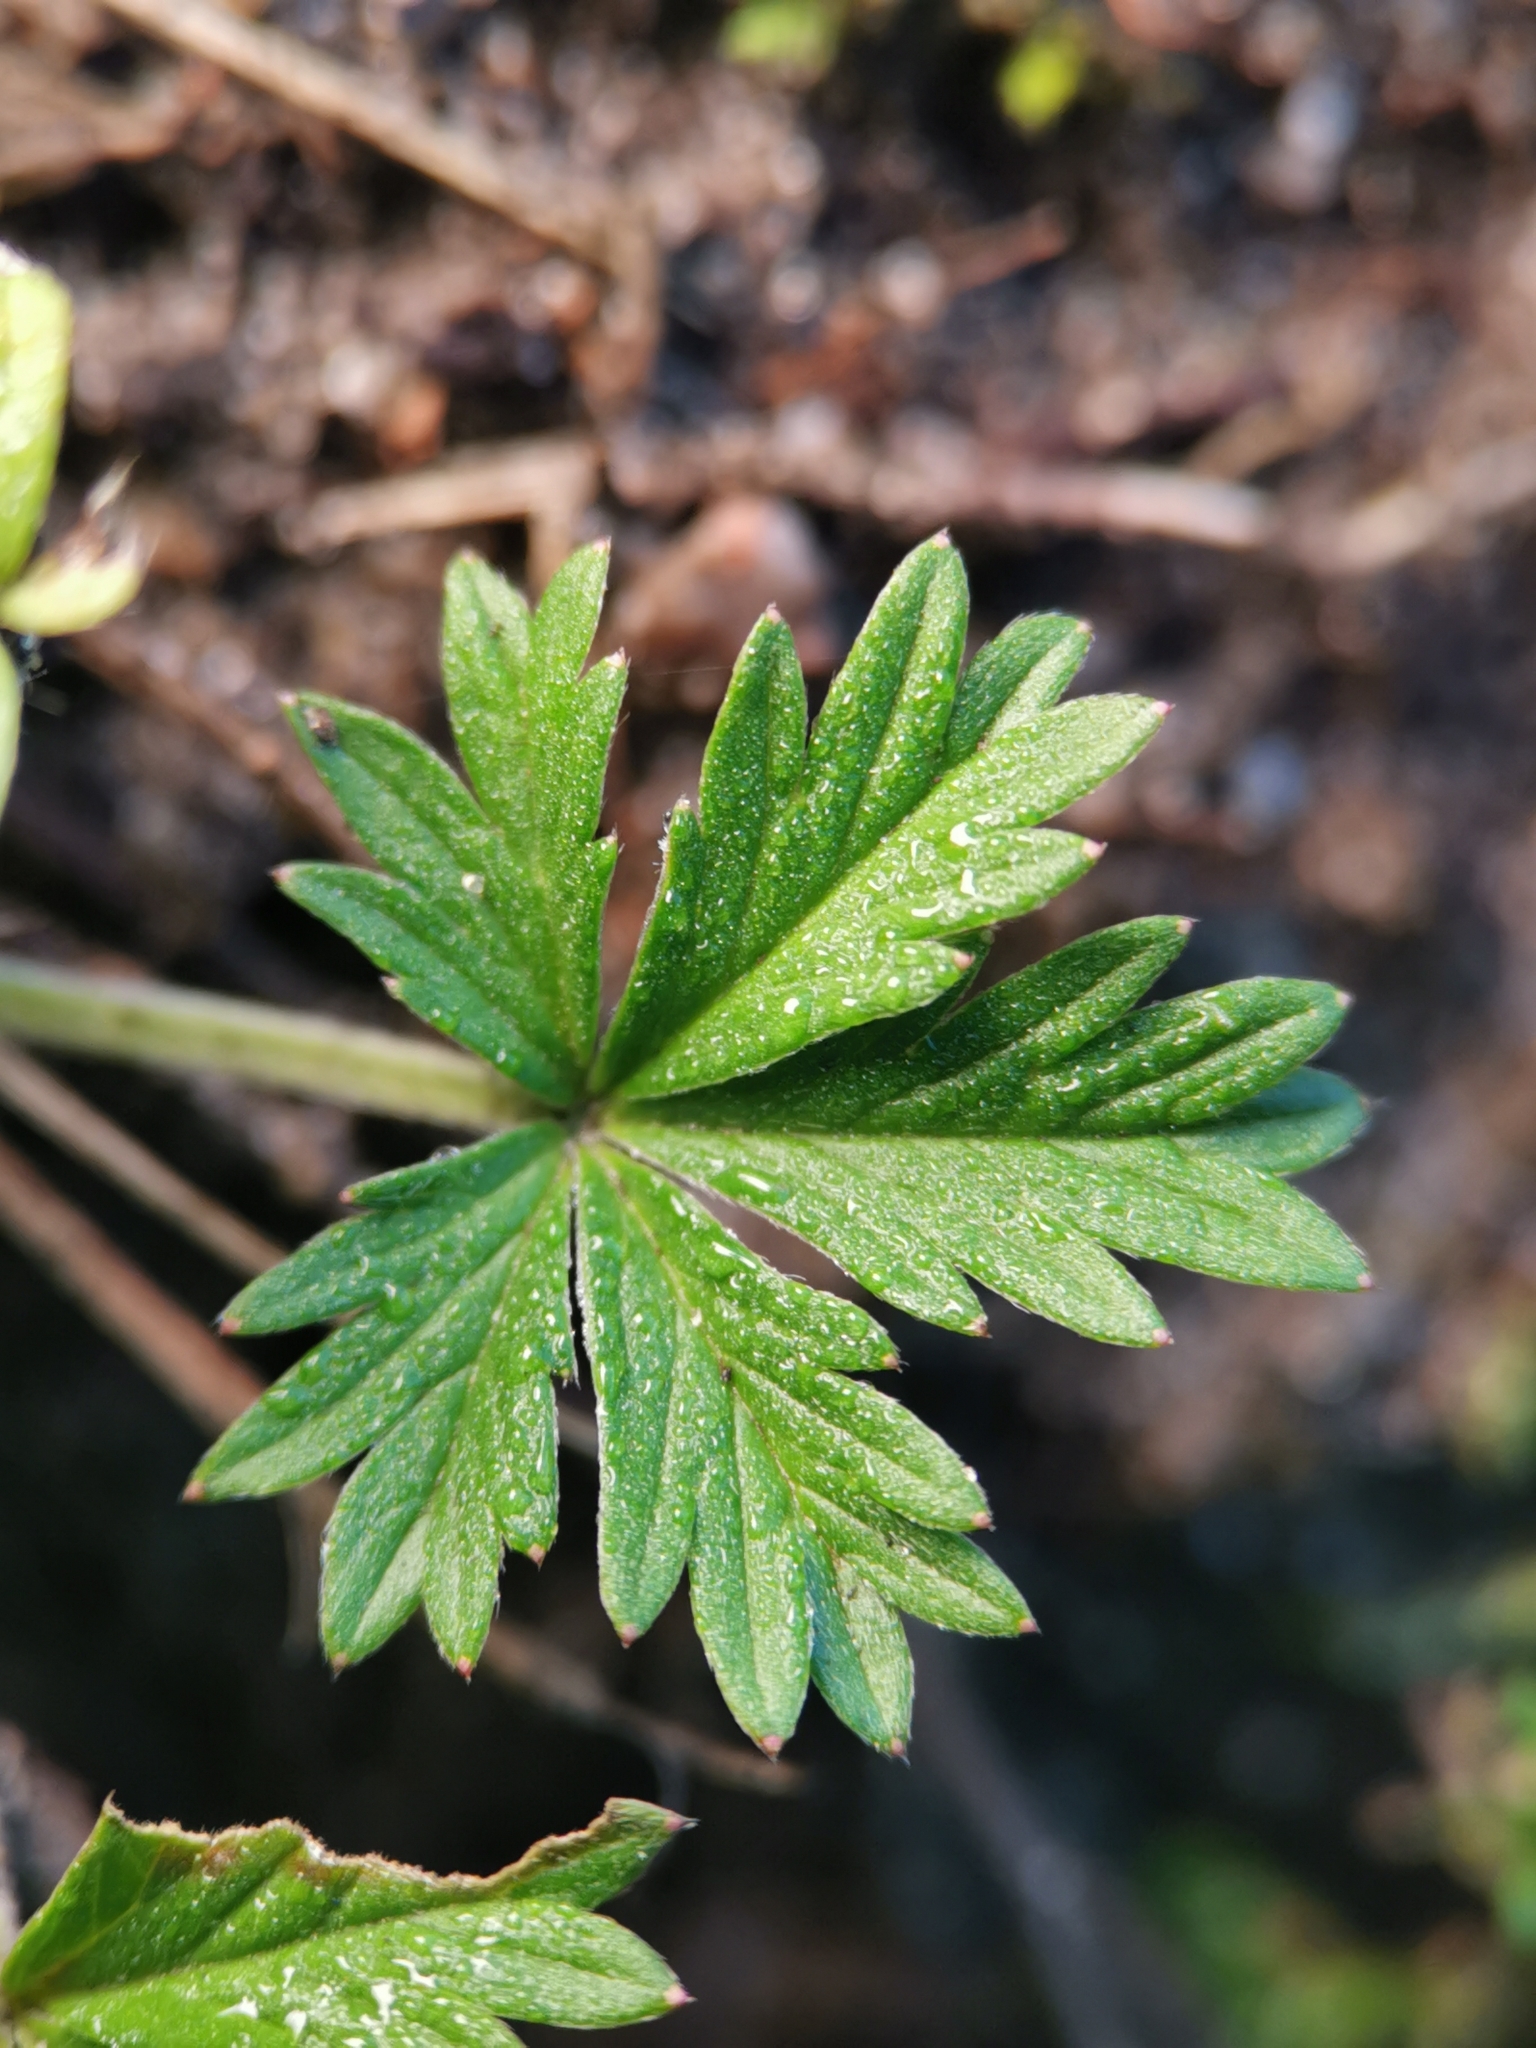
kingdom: Plantae
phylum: Tracheophyta
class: Magnoliopsida
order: Rosales
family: Rosaceae
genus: Potentilla
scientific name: Potentilla argentea
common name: Hoary cinquefoil
